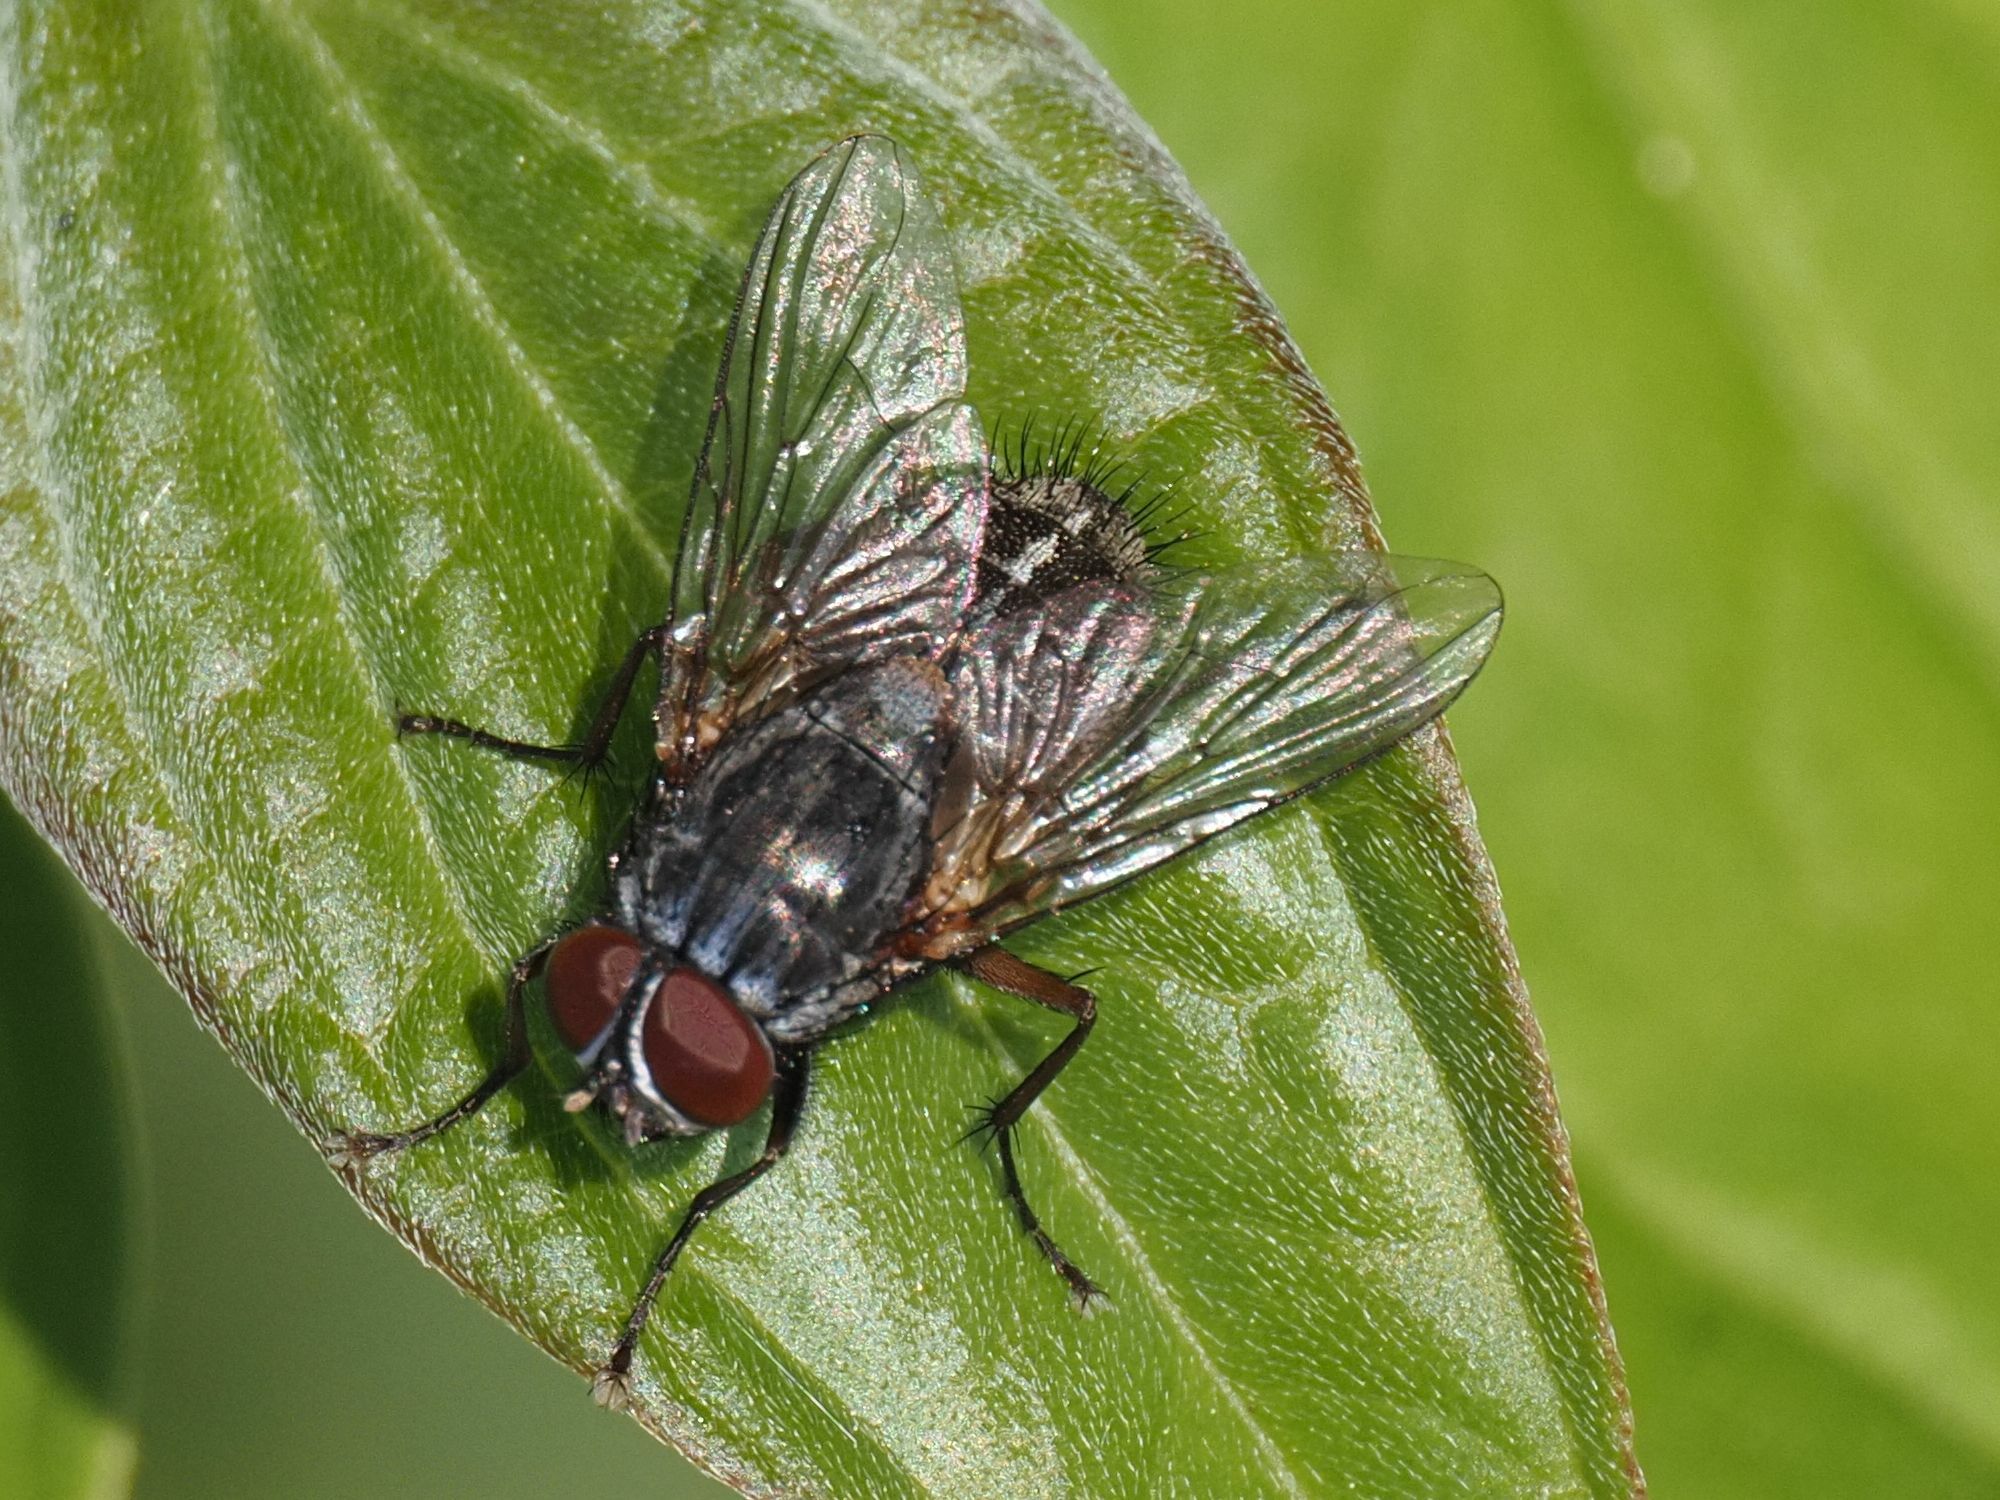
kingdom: Animalia
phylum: Arthropoda
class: Insecta
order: Diptera
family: Muscidae
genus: Muscina
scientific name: Muscina stabulans
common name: False stable fly
